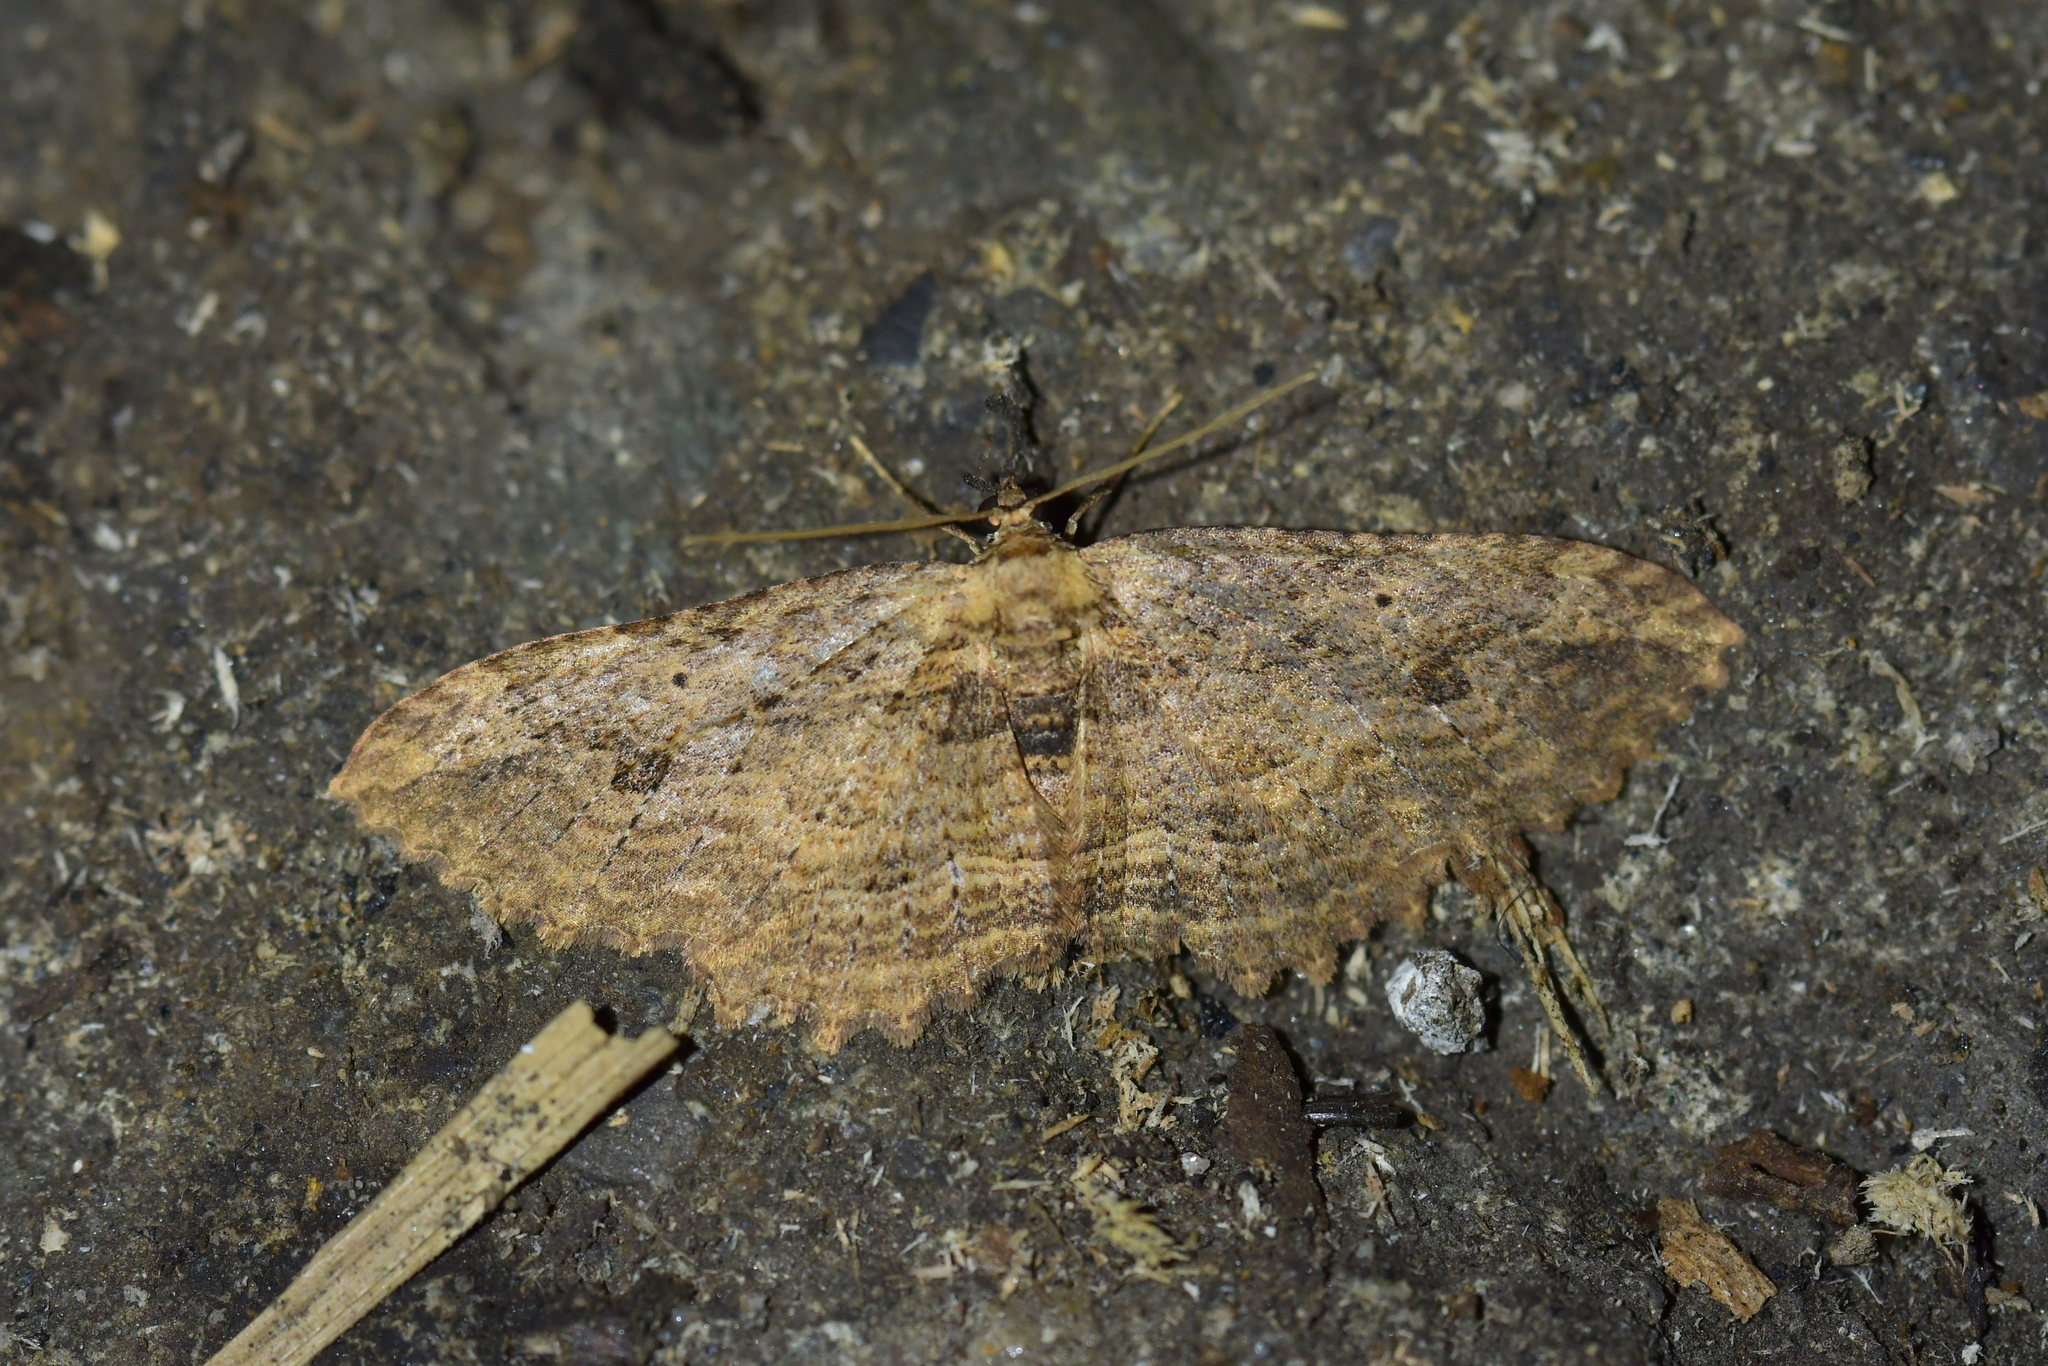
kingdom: Animalia
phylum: Arthropoda
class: Insecta
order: Lepidoptera
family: Geometridae
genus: Austrocidaria
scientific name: Austrocidaria bipartita
